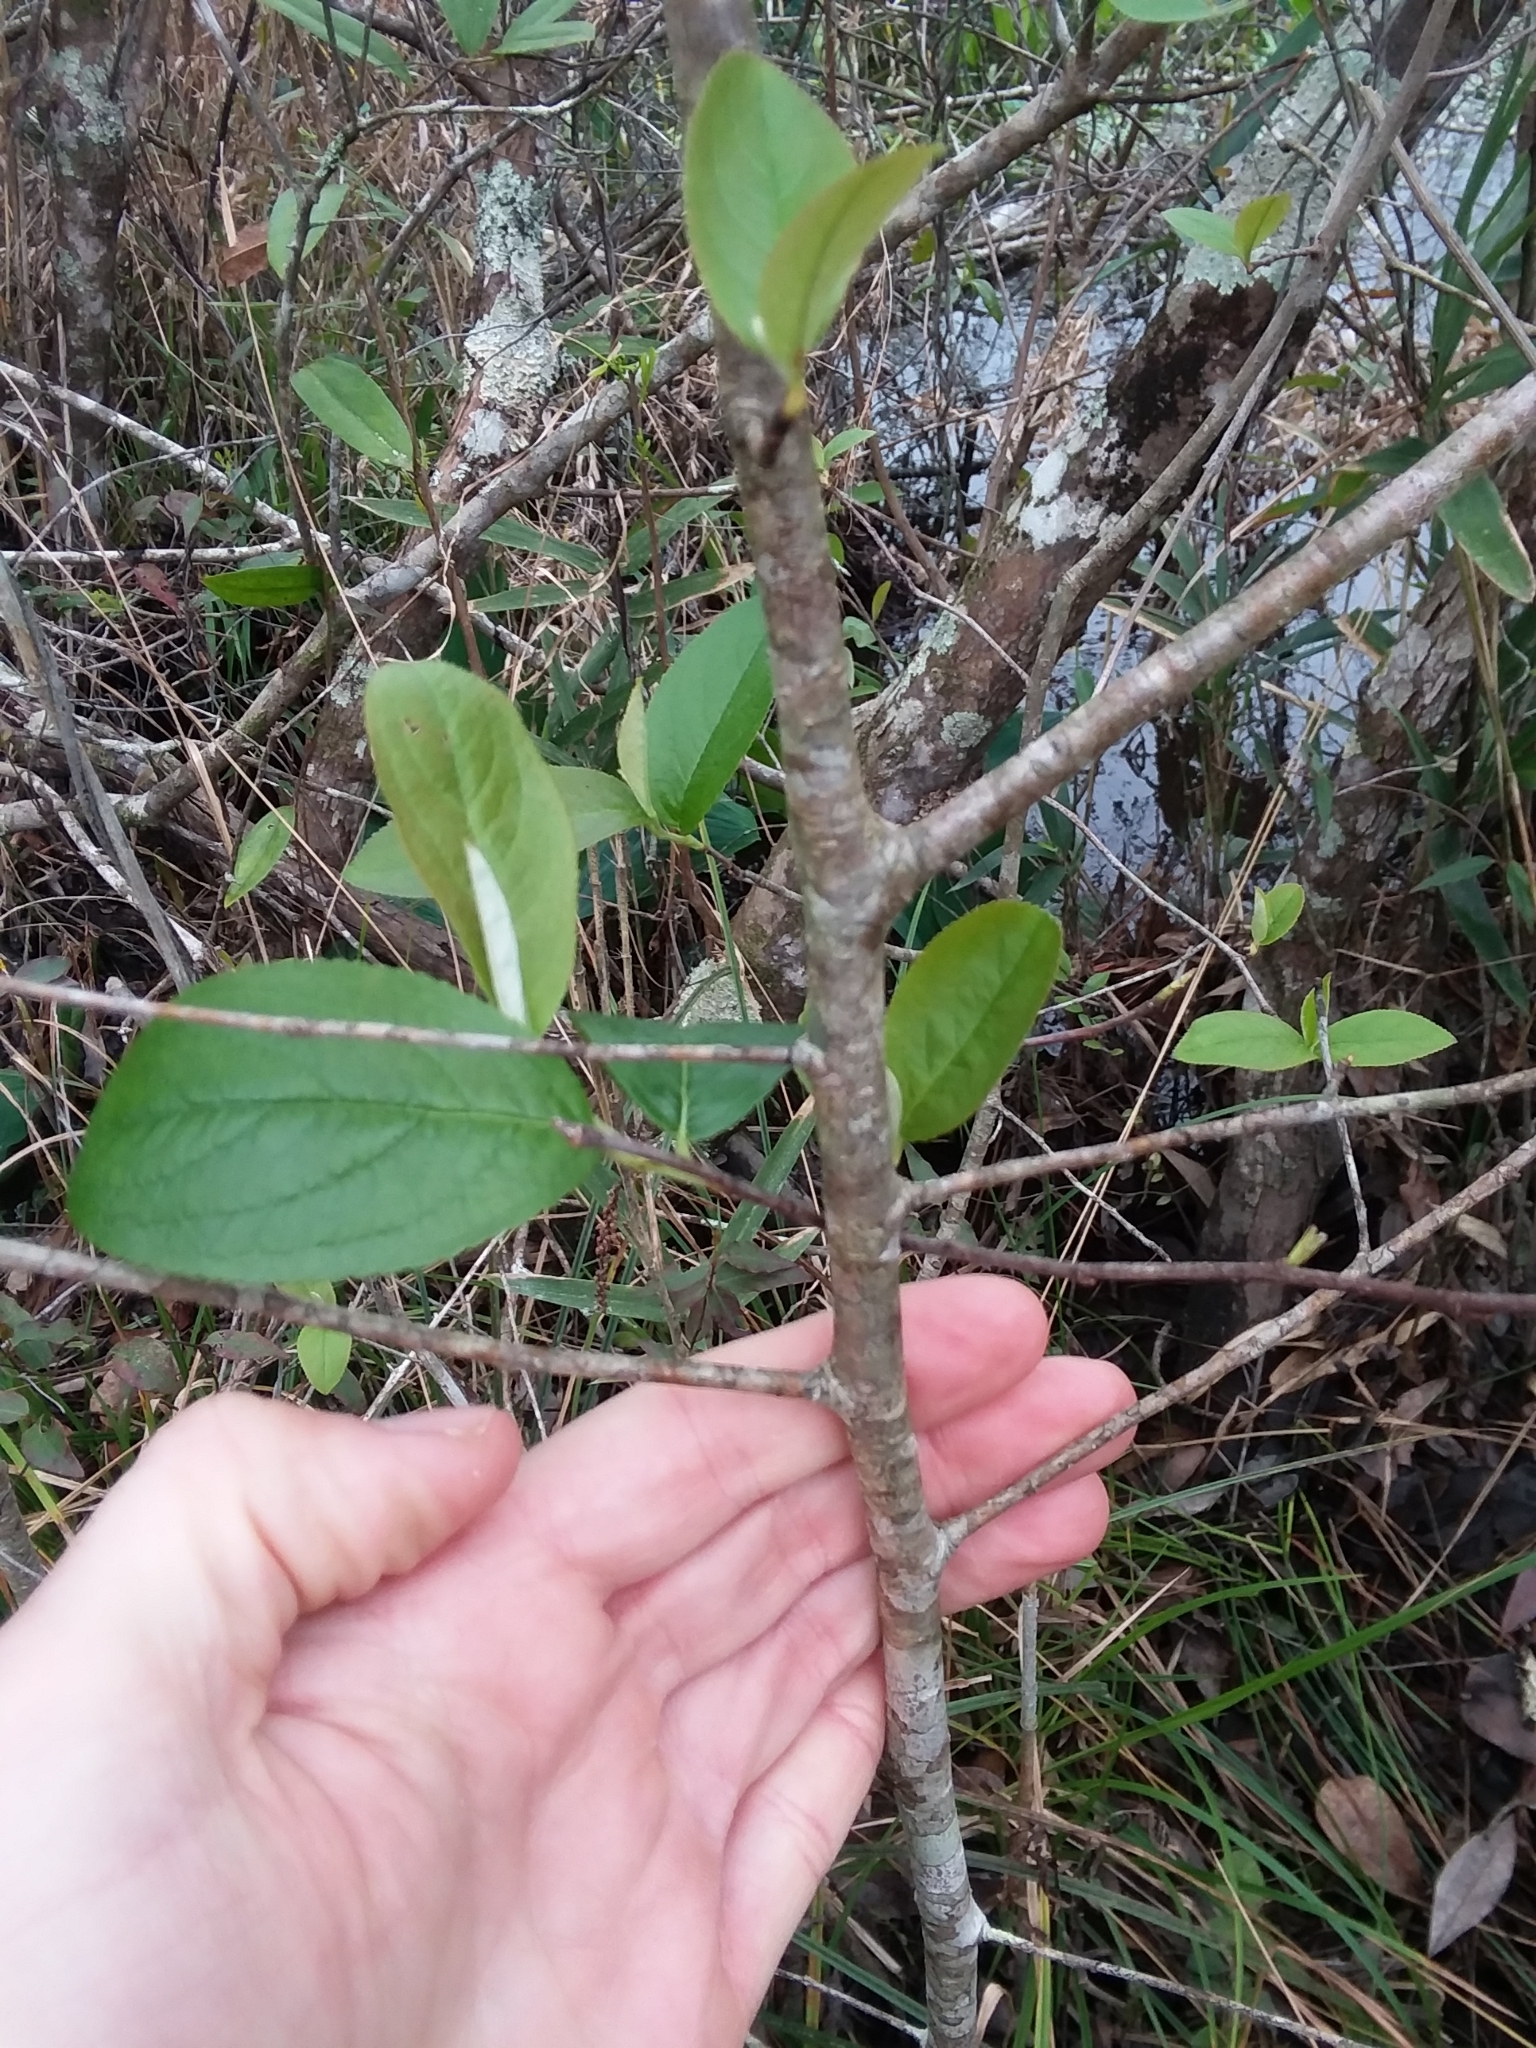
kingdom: Plantae
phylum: Tracheophyta
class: Magnoliopsida
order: Rosales
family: Rosaceae
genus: Aronia
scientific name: Aronia arbutifolia
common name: Red chokeberry
